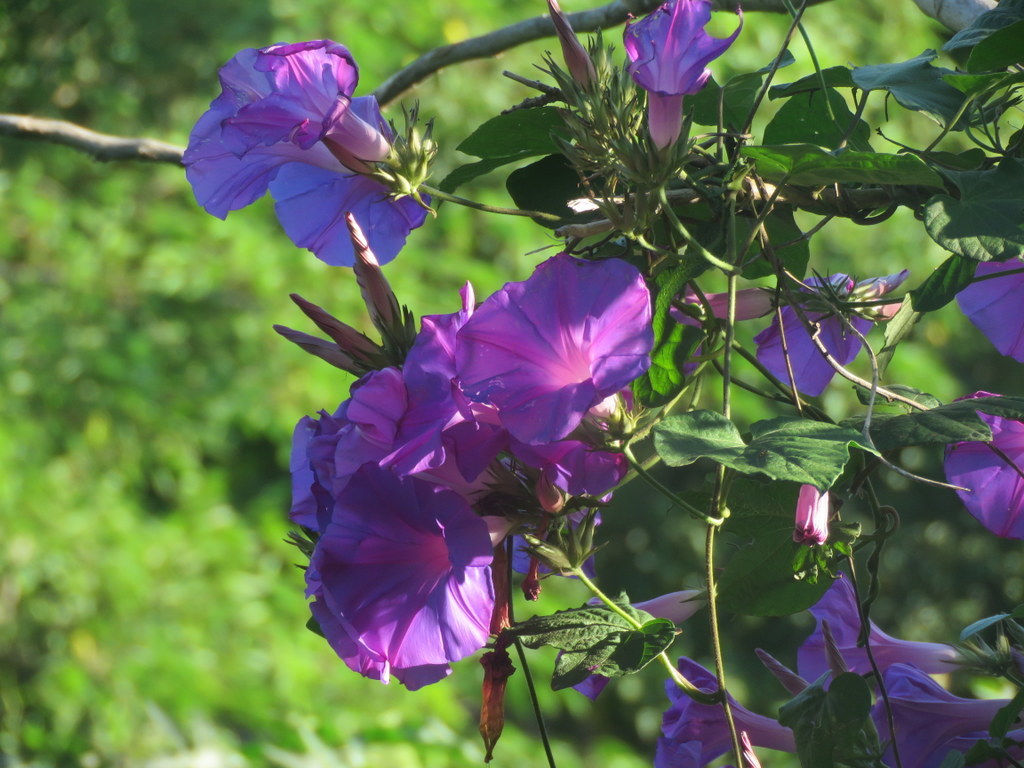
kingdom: Plantae
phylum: Tracheophyta
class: Magnoliopsida
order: Solanales
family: Convolvulaceae
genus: Ipomoea
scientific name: Ipomoea indica
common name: Blue dawnflower
